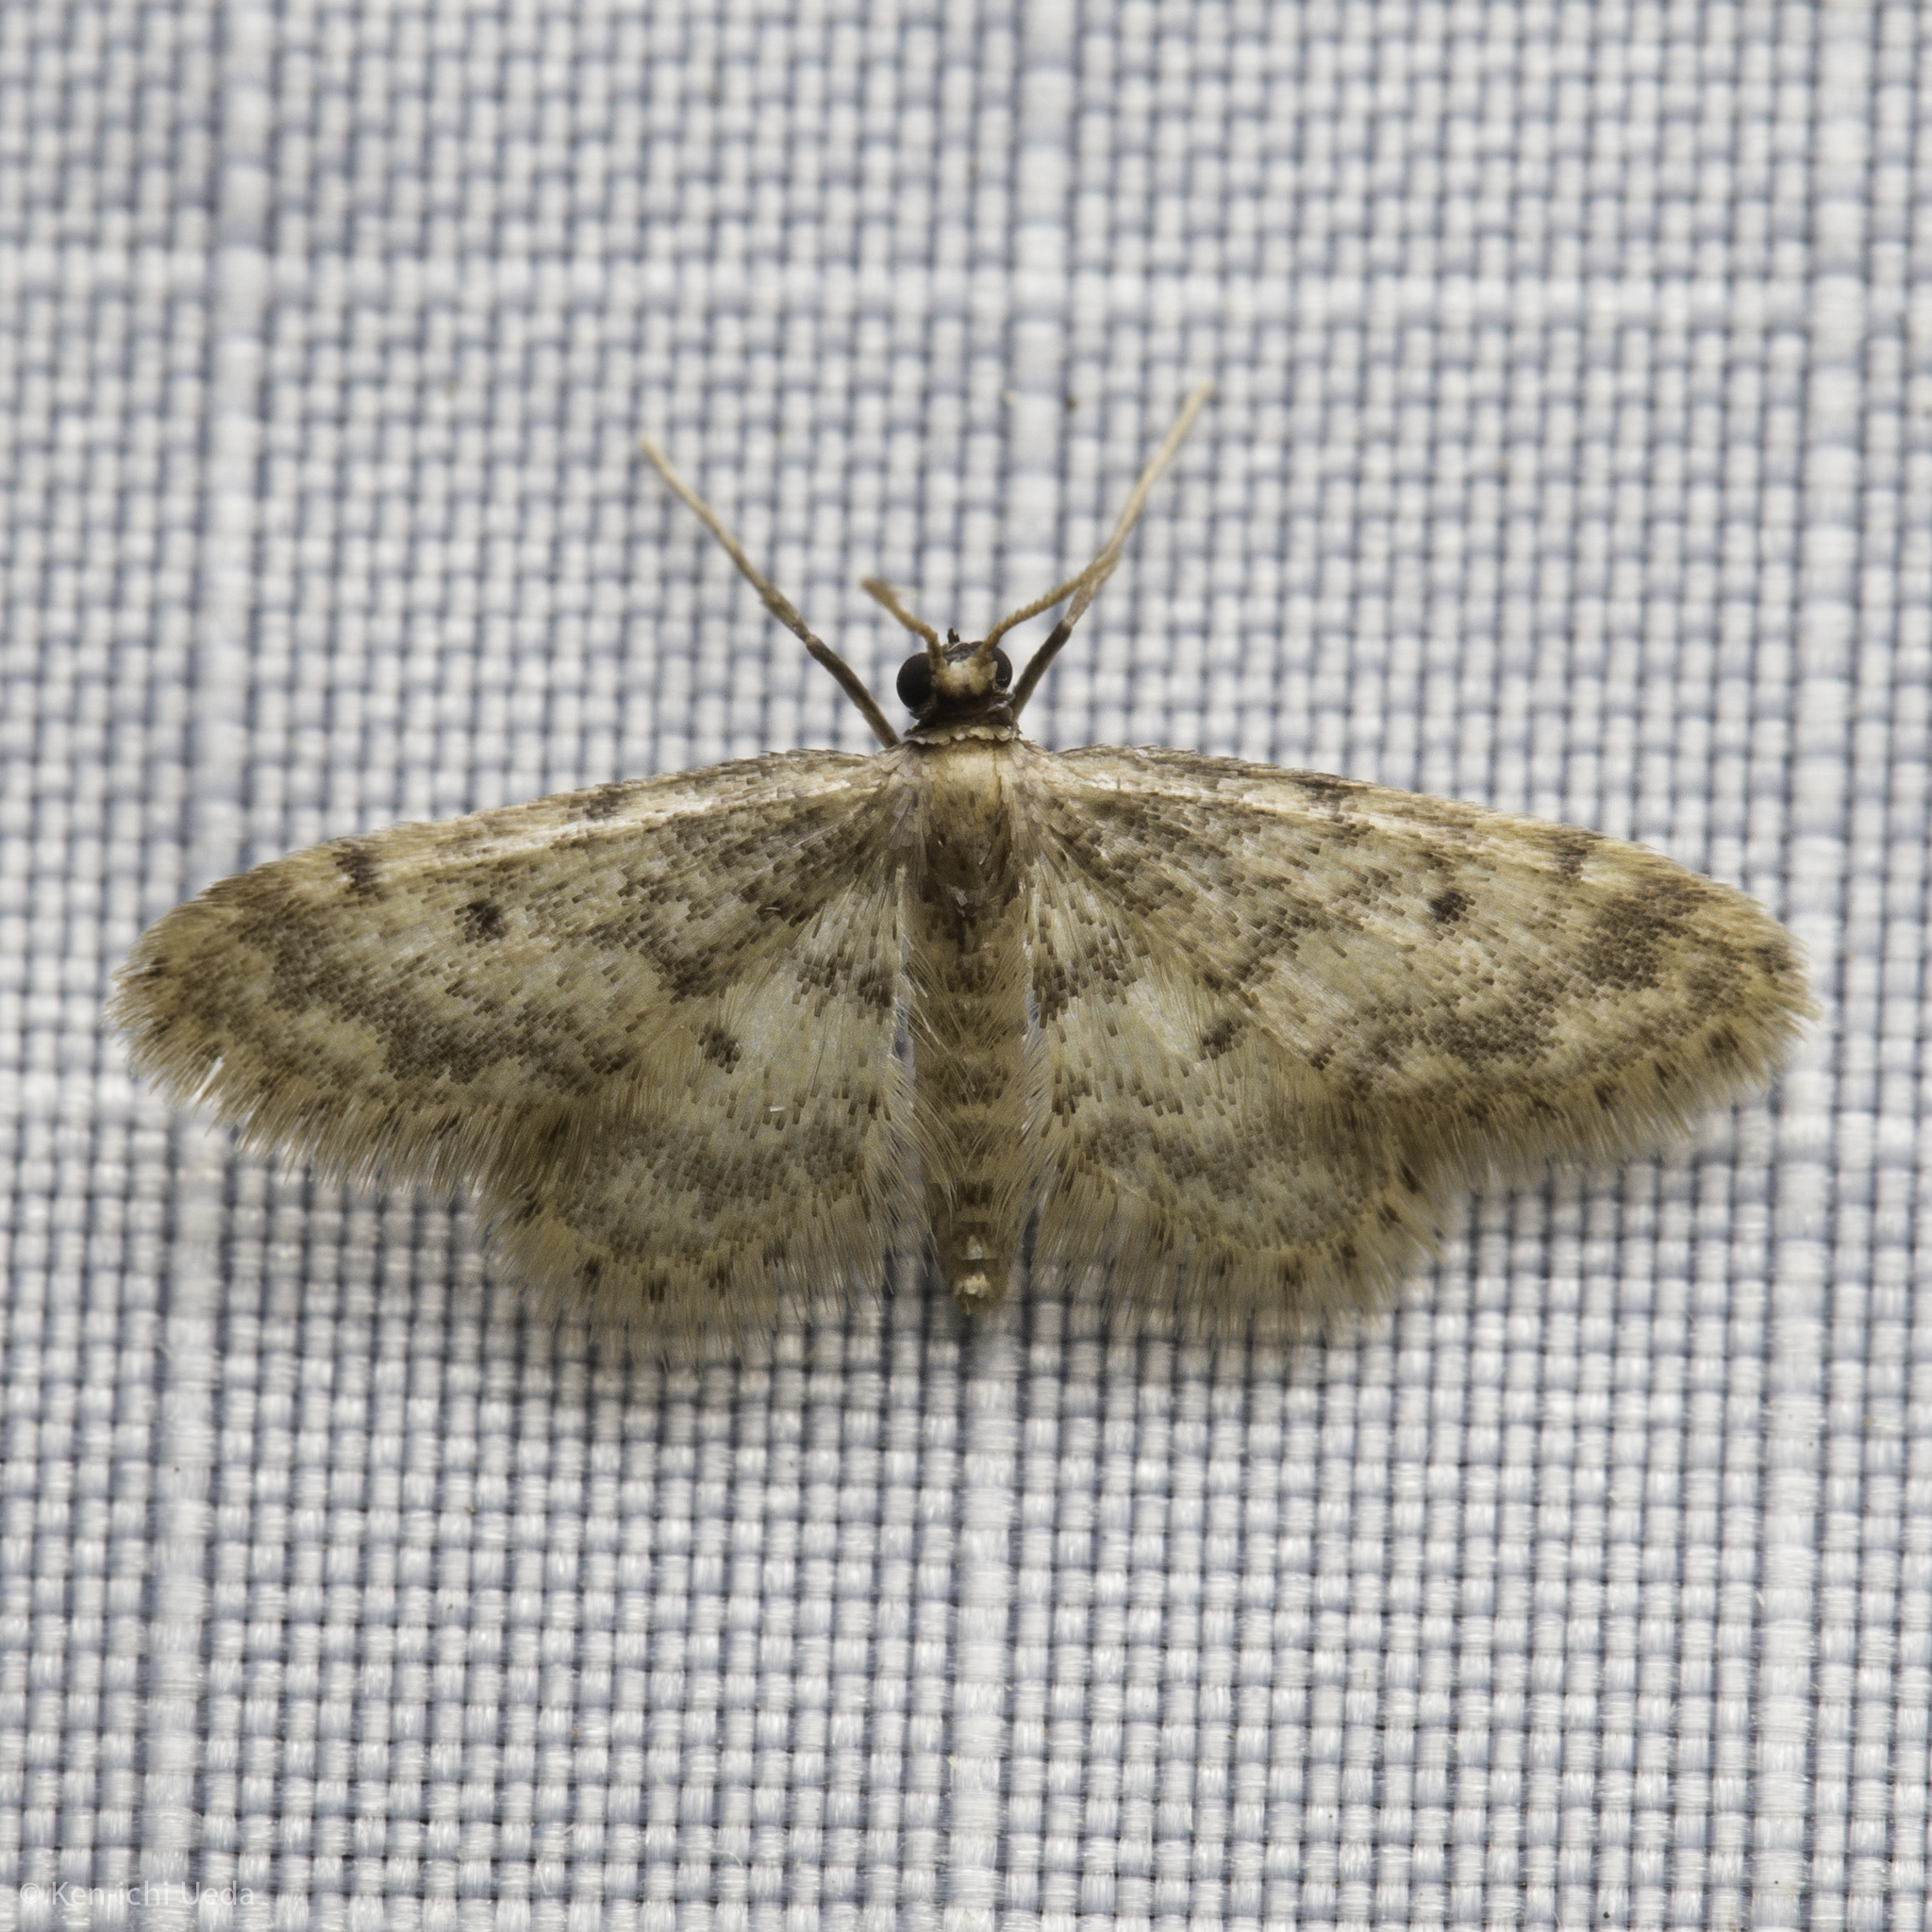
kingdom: Animalia
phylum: Arthropoda
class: Insecta
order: Lepidoptera
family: Geometridae
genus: Idaea
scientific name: Idaea bonifata
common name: Fortunate wave
